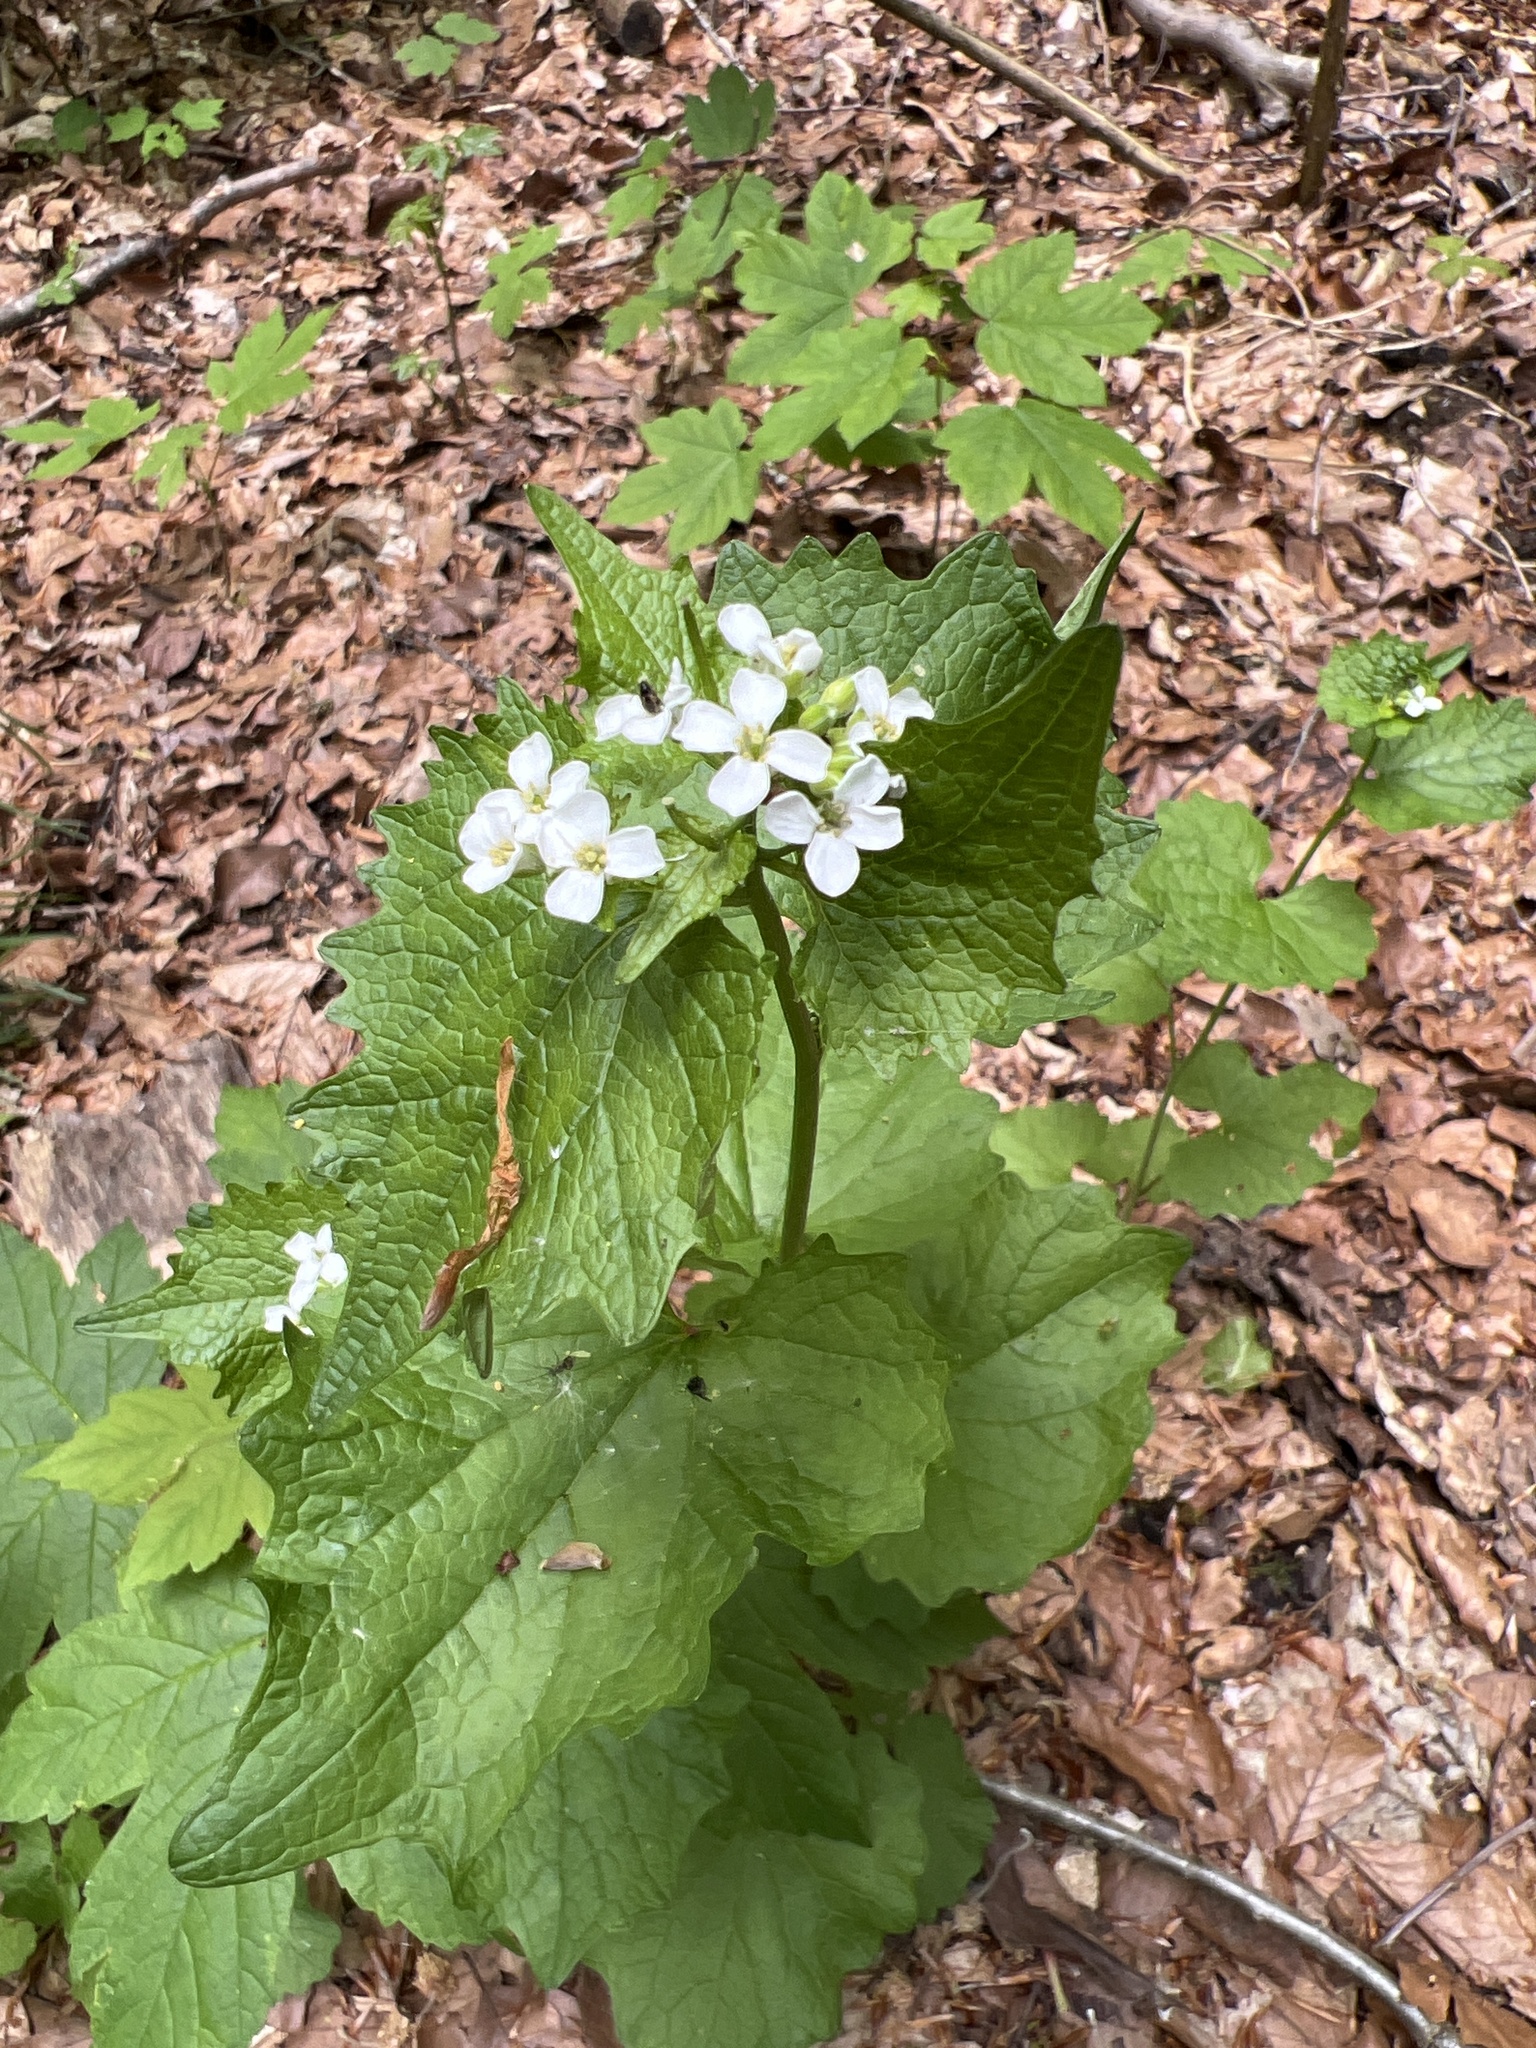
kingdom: Plantae
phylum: Tracheophyta
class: Magnoliopsida
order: Brassicales
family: Brassicaceae
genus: Alliaria
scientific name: Alliaria petiolata
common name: Garlic mustard
